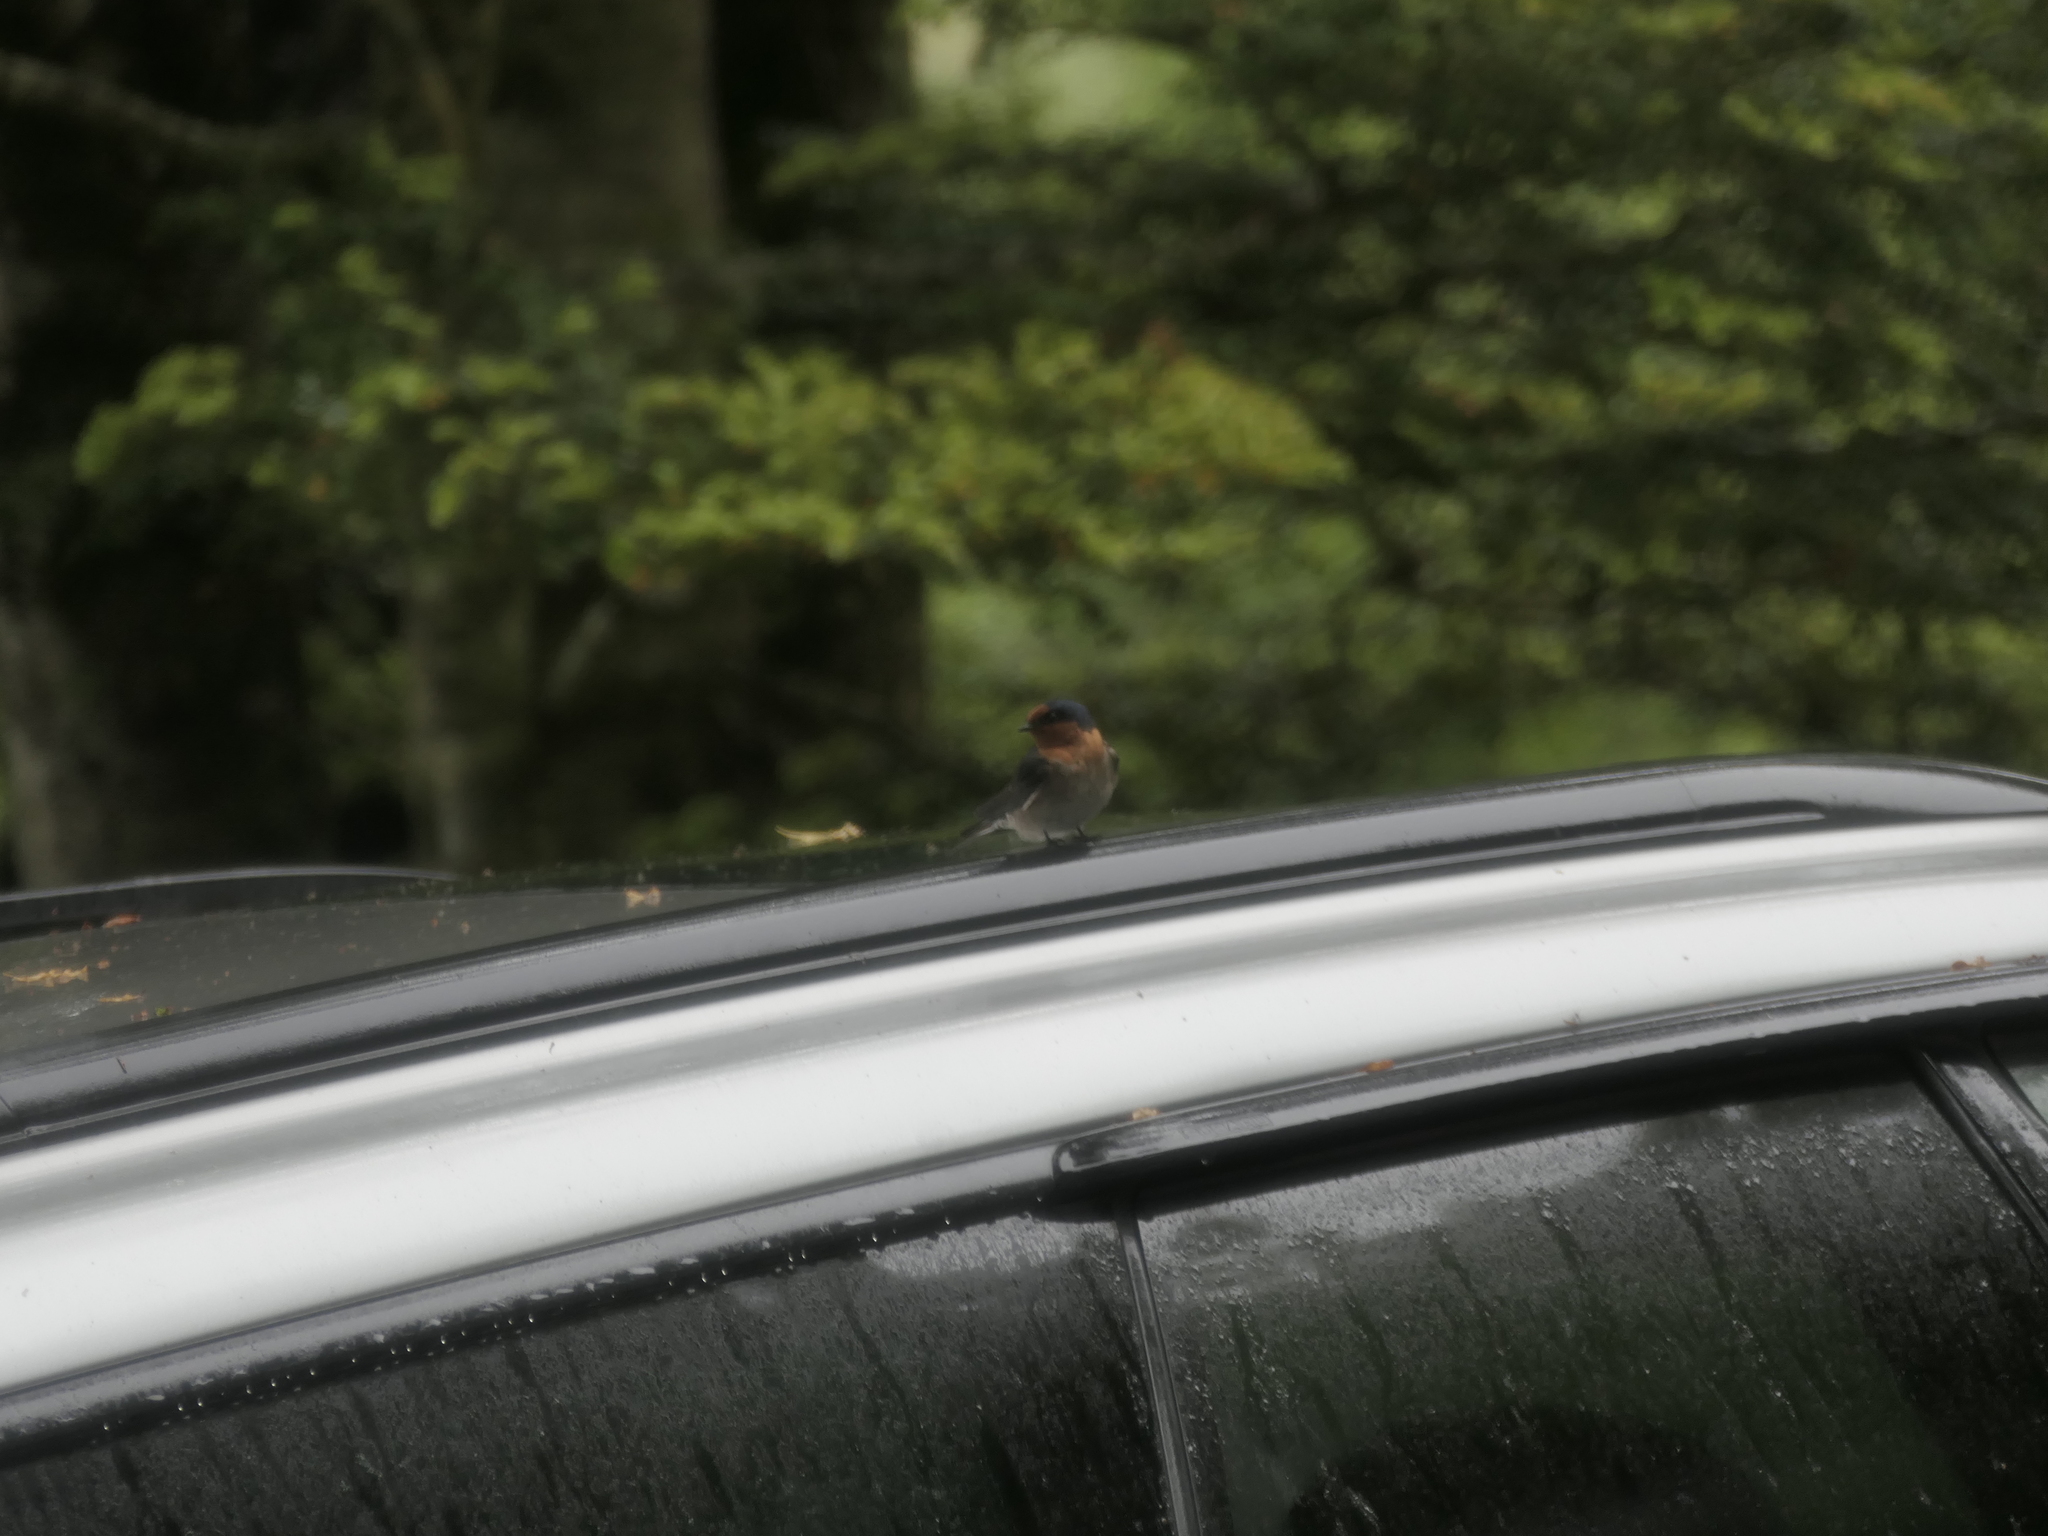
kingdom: Animalia
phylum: Chordata
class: Aves
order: Passeriformes
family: Hirundinidae
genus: Hirundo
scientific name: Hirundo neoxena
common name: Welcome swallow
